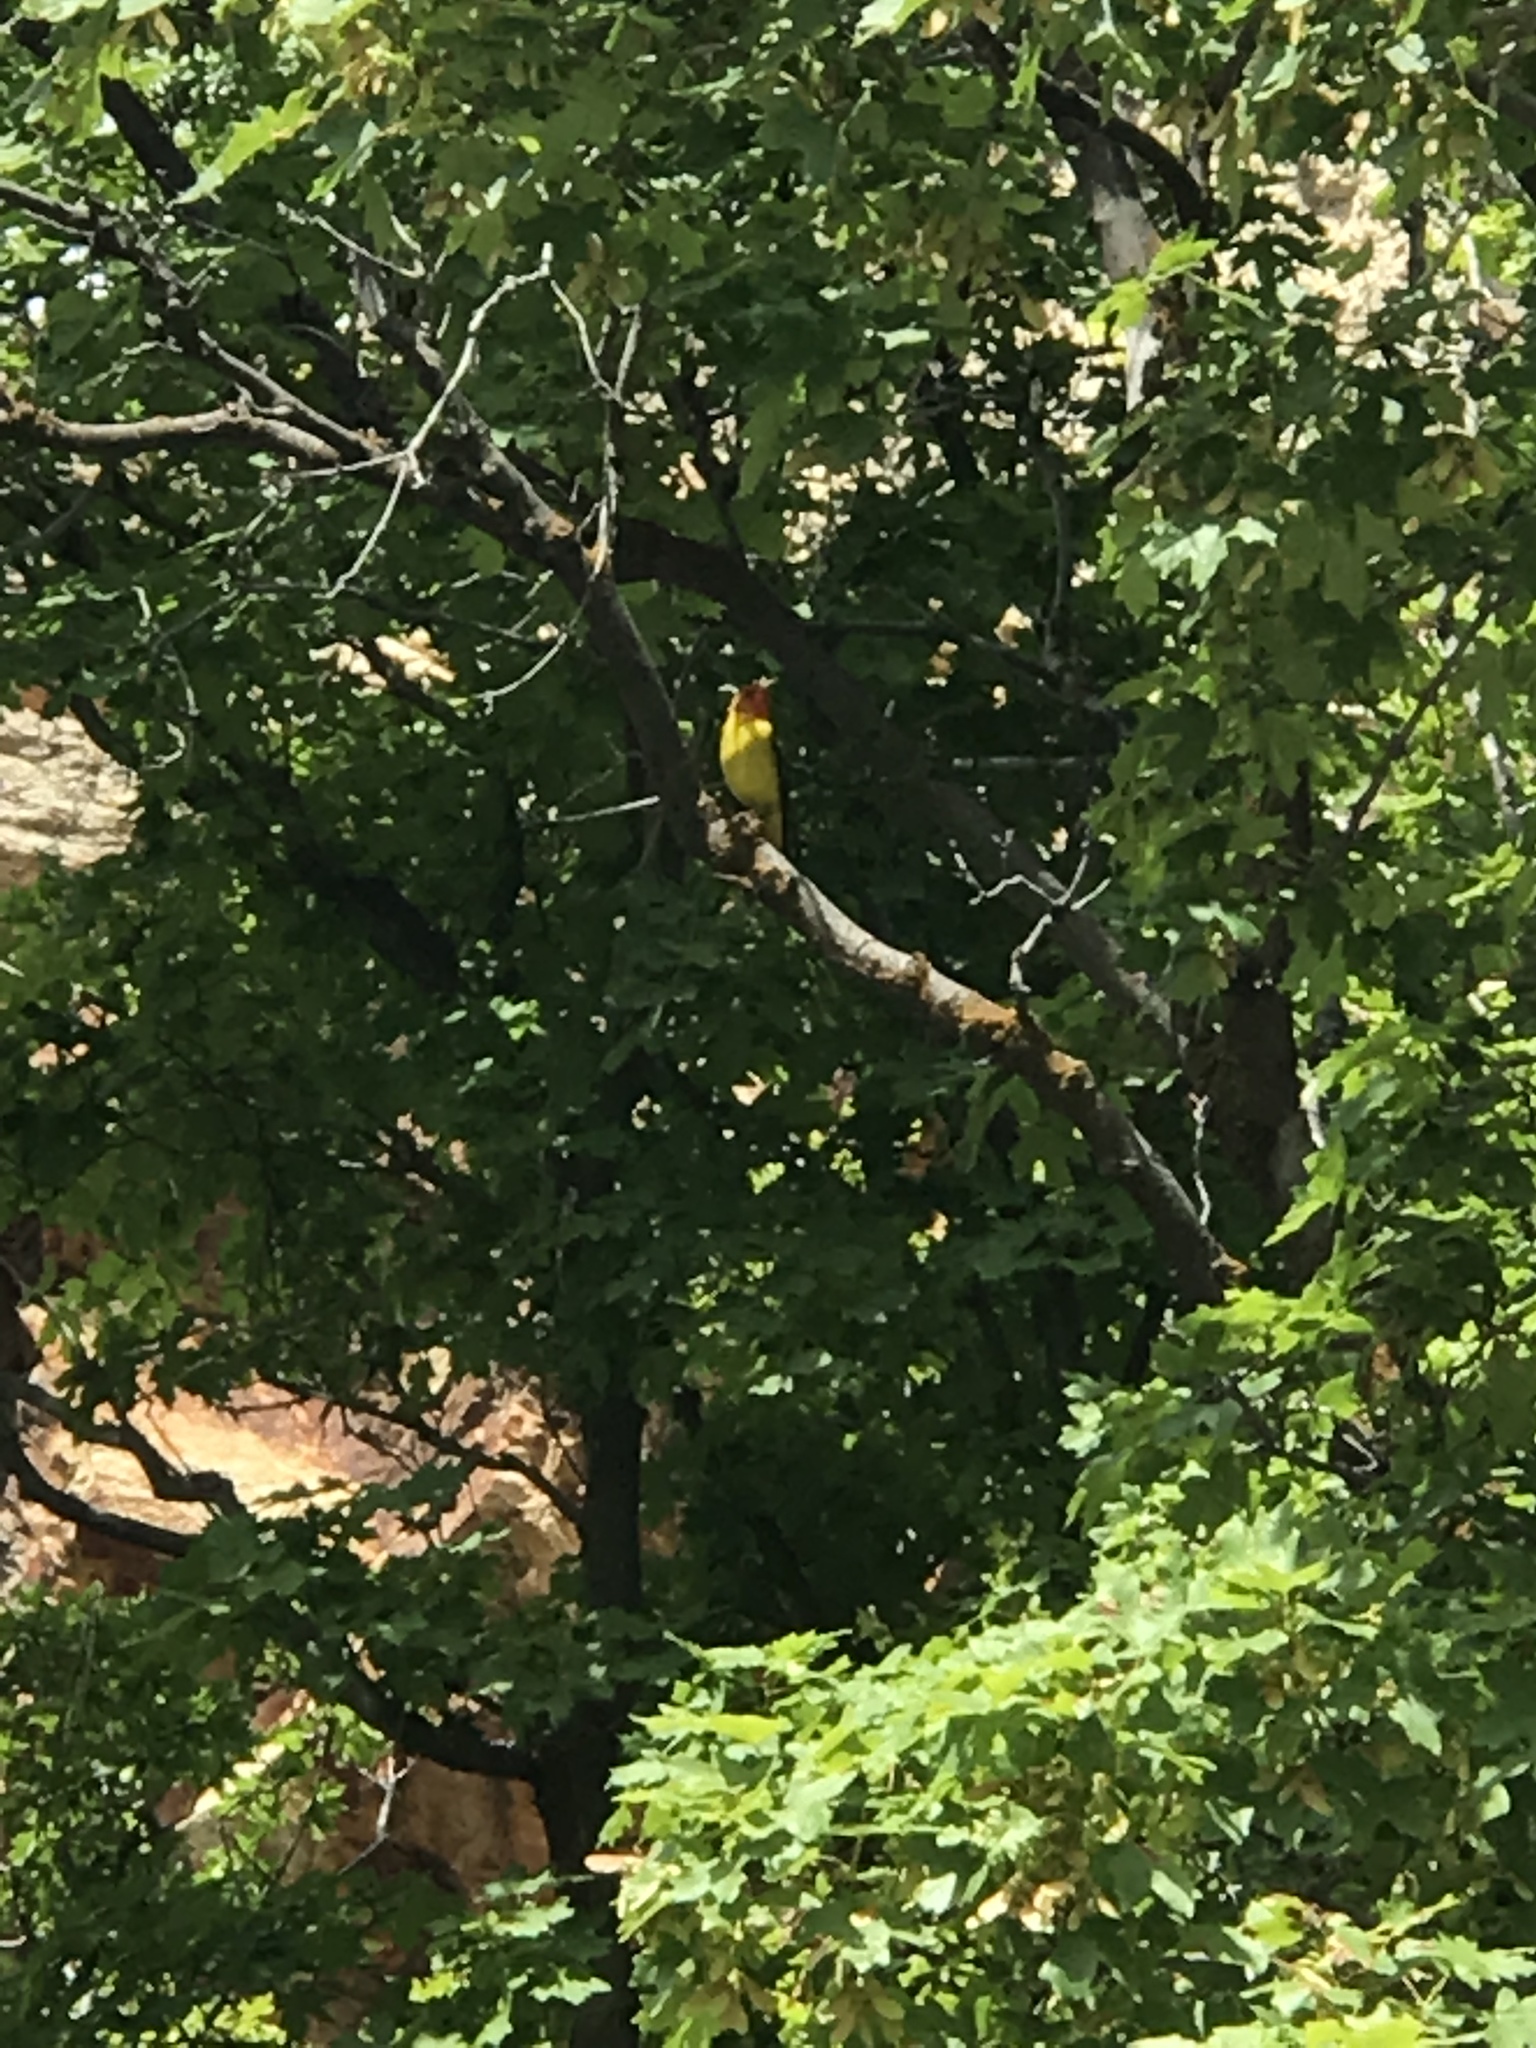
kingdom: Animalia
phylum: Chordata
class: Aves
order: Passeriformes
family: Cardinalidae
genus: Piranga
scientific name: Piranga ludoviciana
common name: Western tanager
